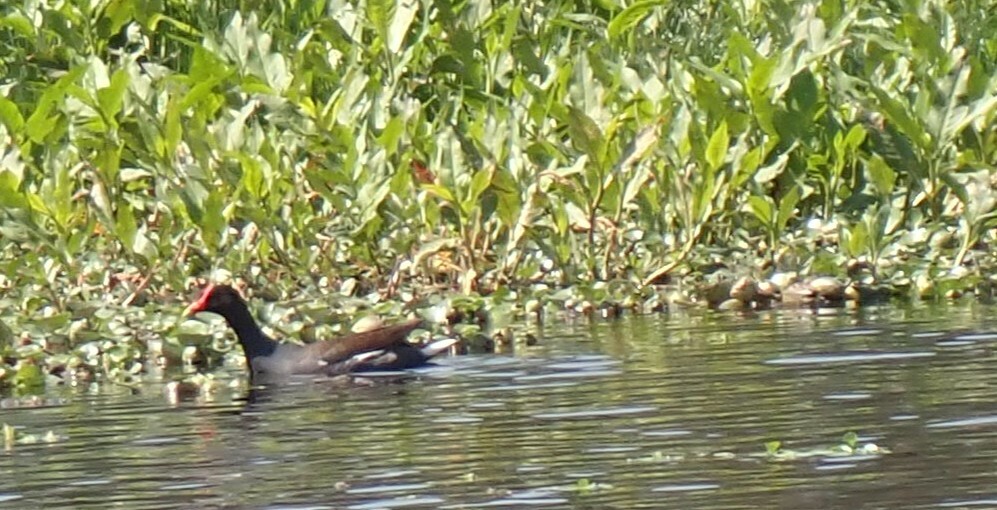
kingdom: Animalia
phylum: Chordata
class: Aves
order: Gruiformes
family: Rallidae
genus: Gallinula
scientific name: Gallinula chloropus
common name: Common moorhen
